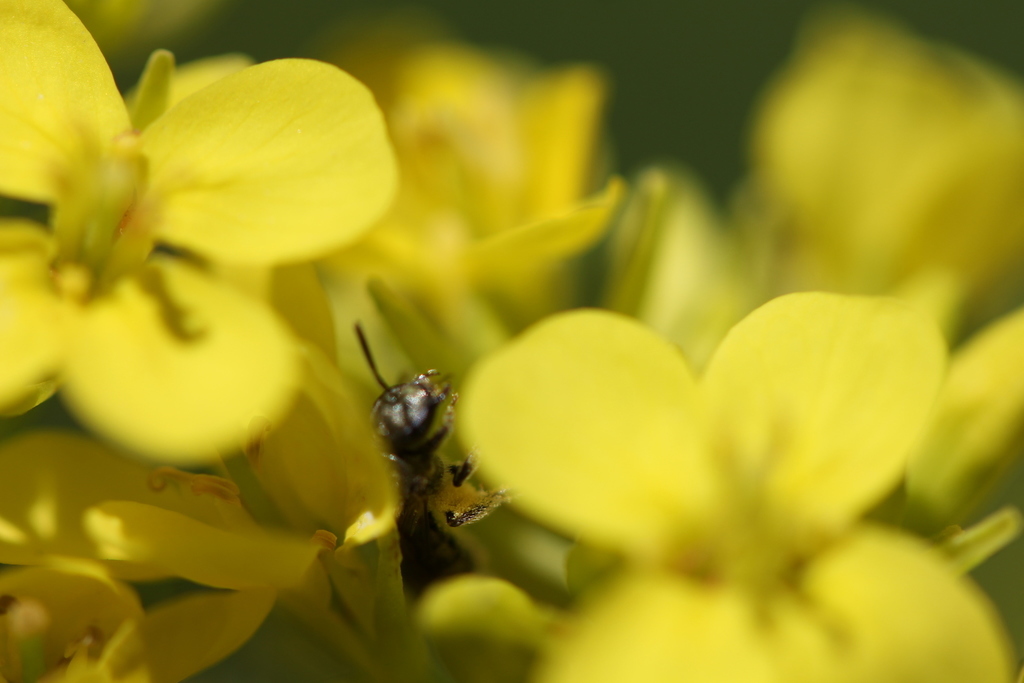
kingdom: Animalia
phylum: Arthropoda
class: Insecta
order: Hymenoptera
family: Halictidae
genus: Dialictus
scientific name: Dialictus
